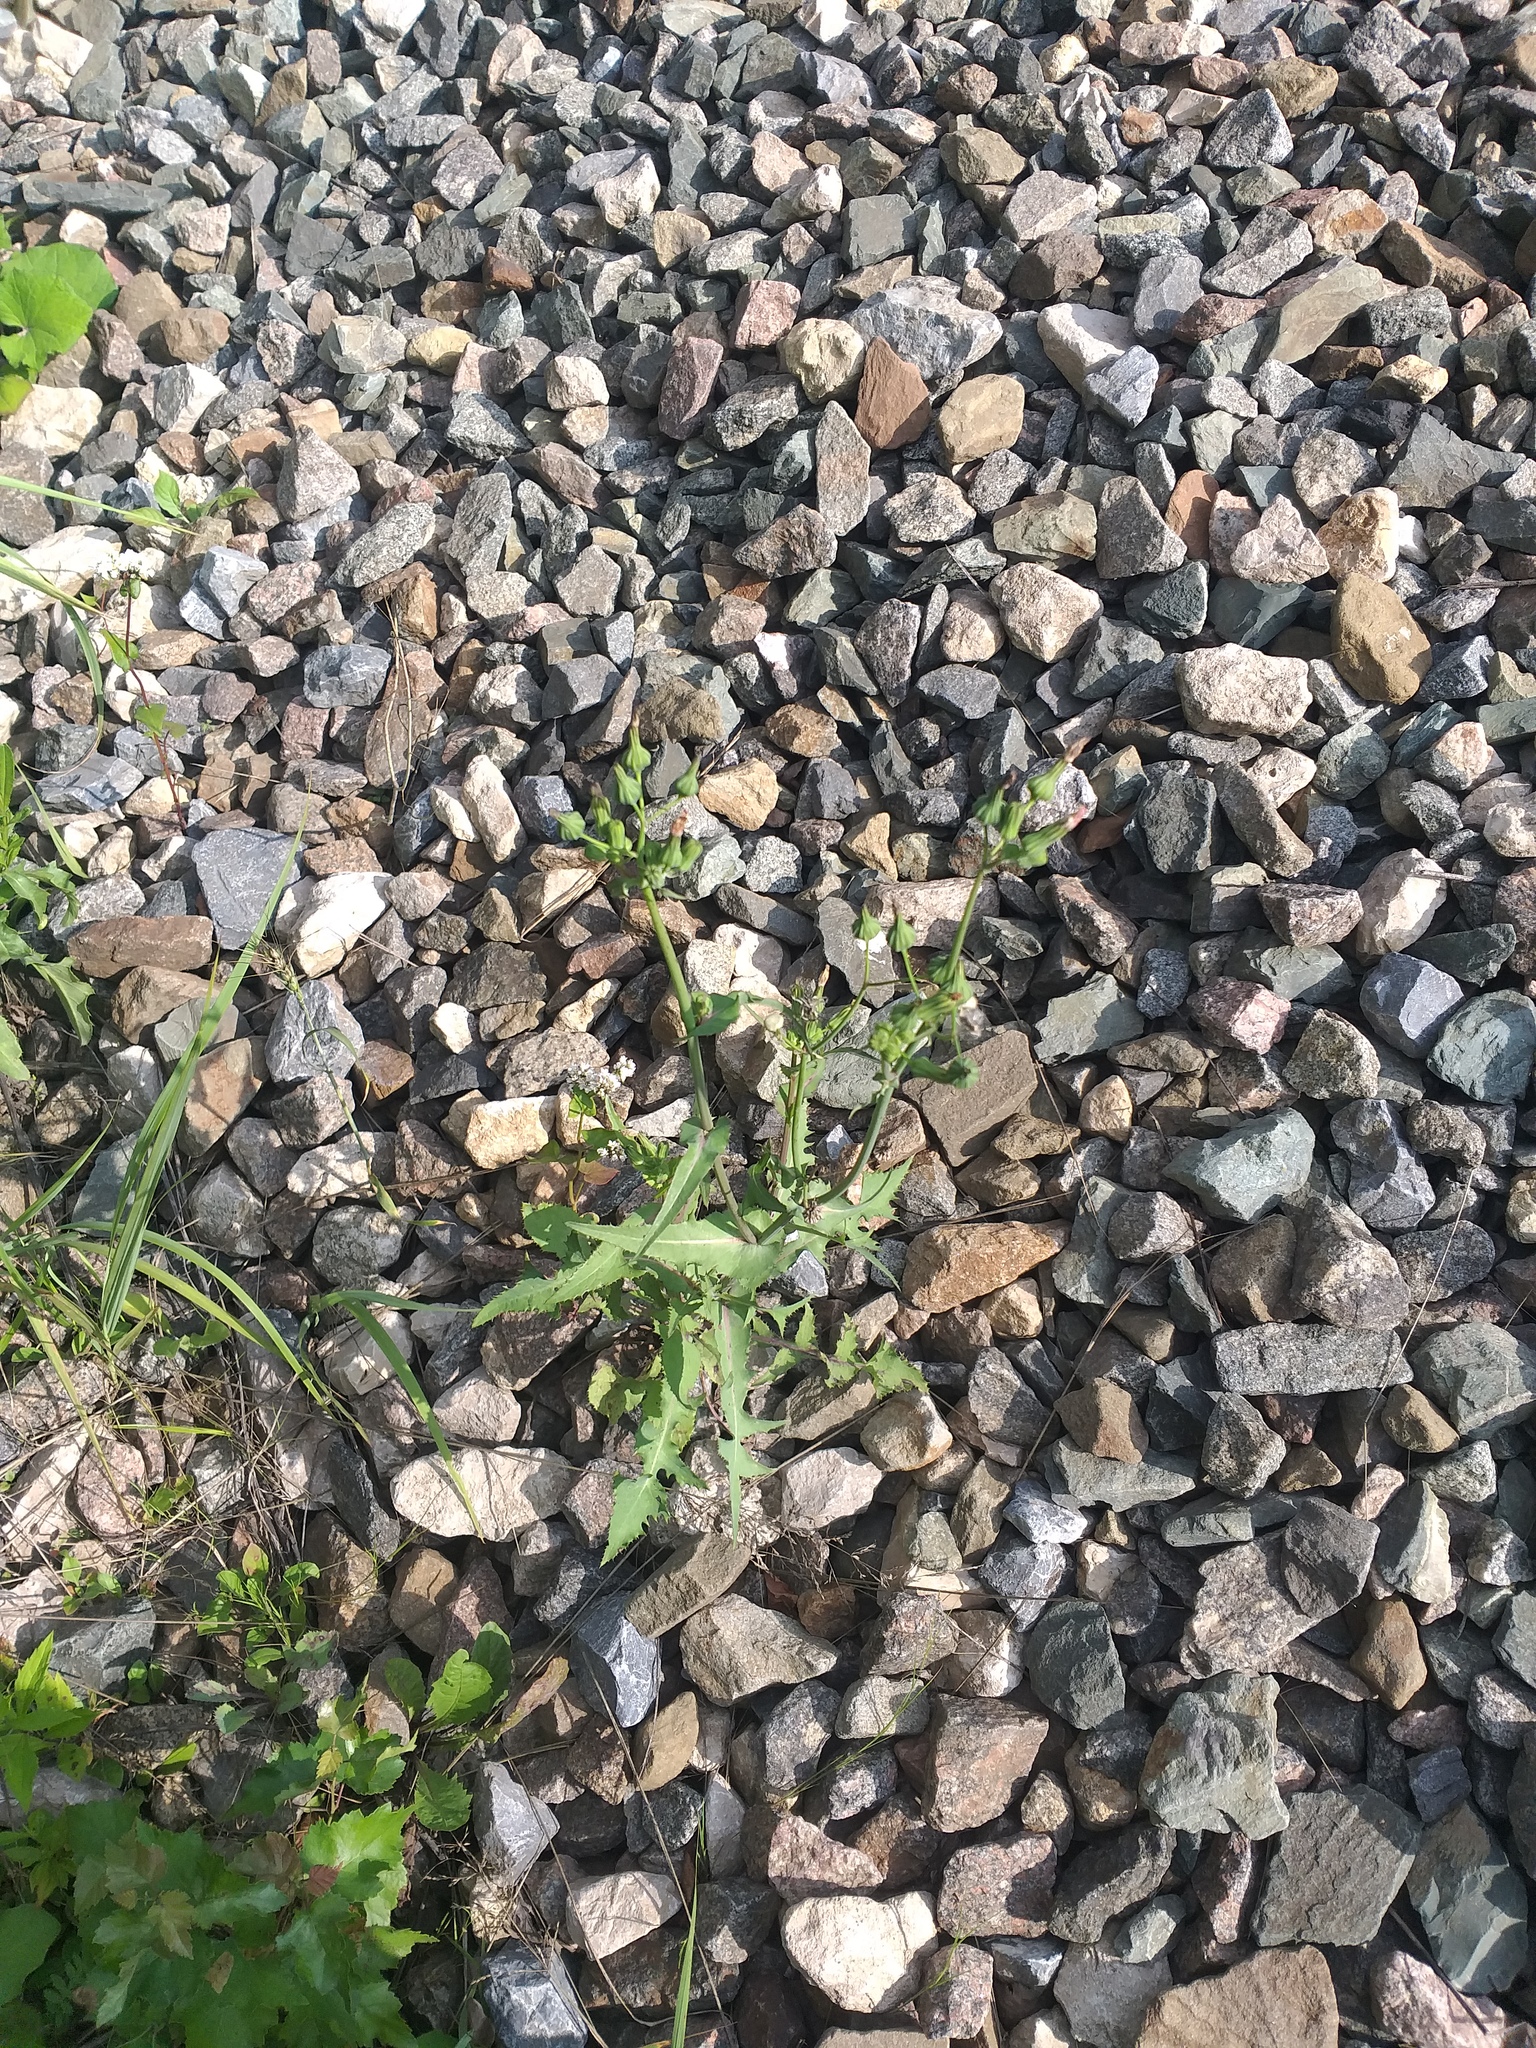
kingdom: Plantae
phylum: Tracheophyta
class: Magnoliopsida
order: Asterales
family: Asteraceae
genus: Sonchus
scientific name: Sonchus oleraceus
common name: Common sowthistle
